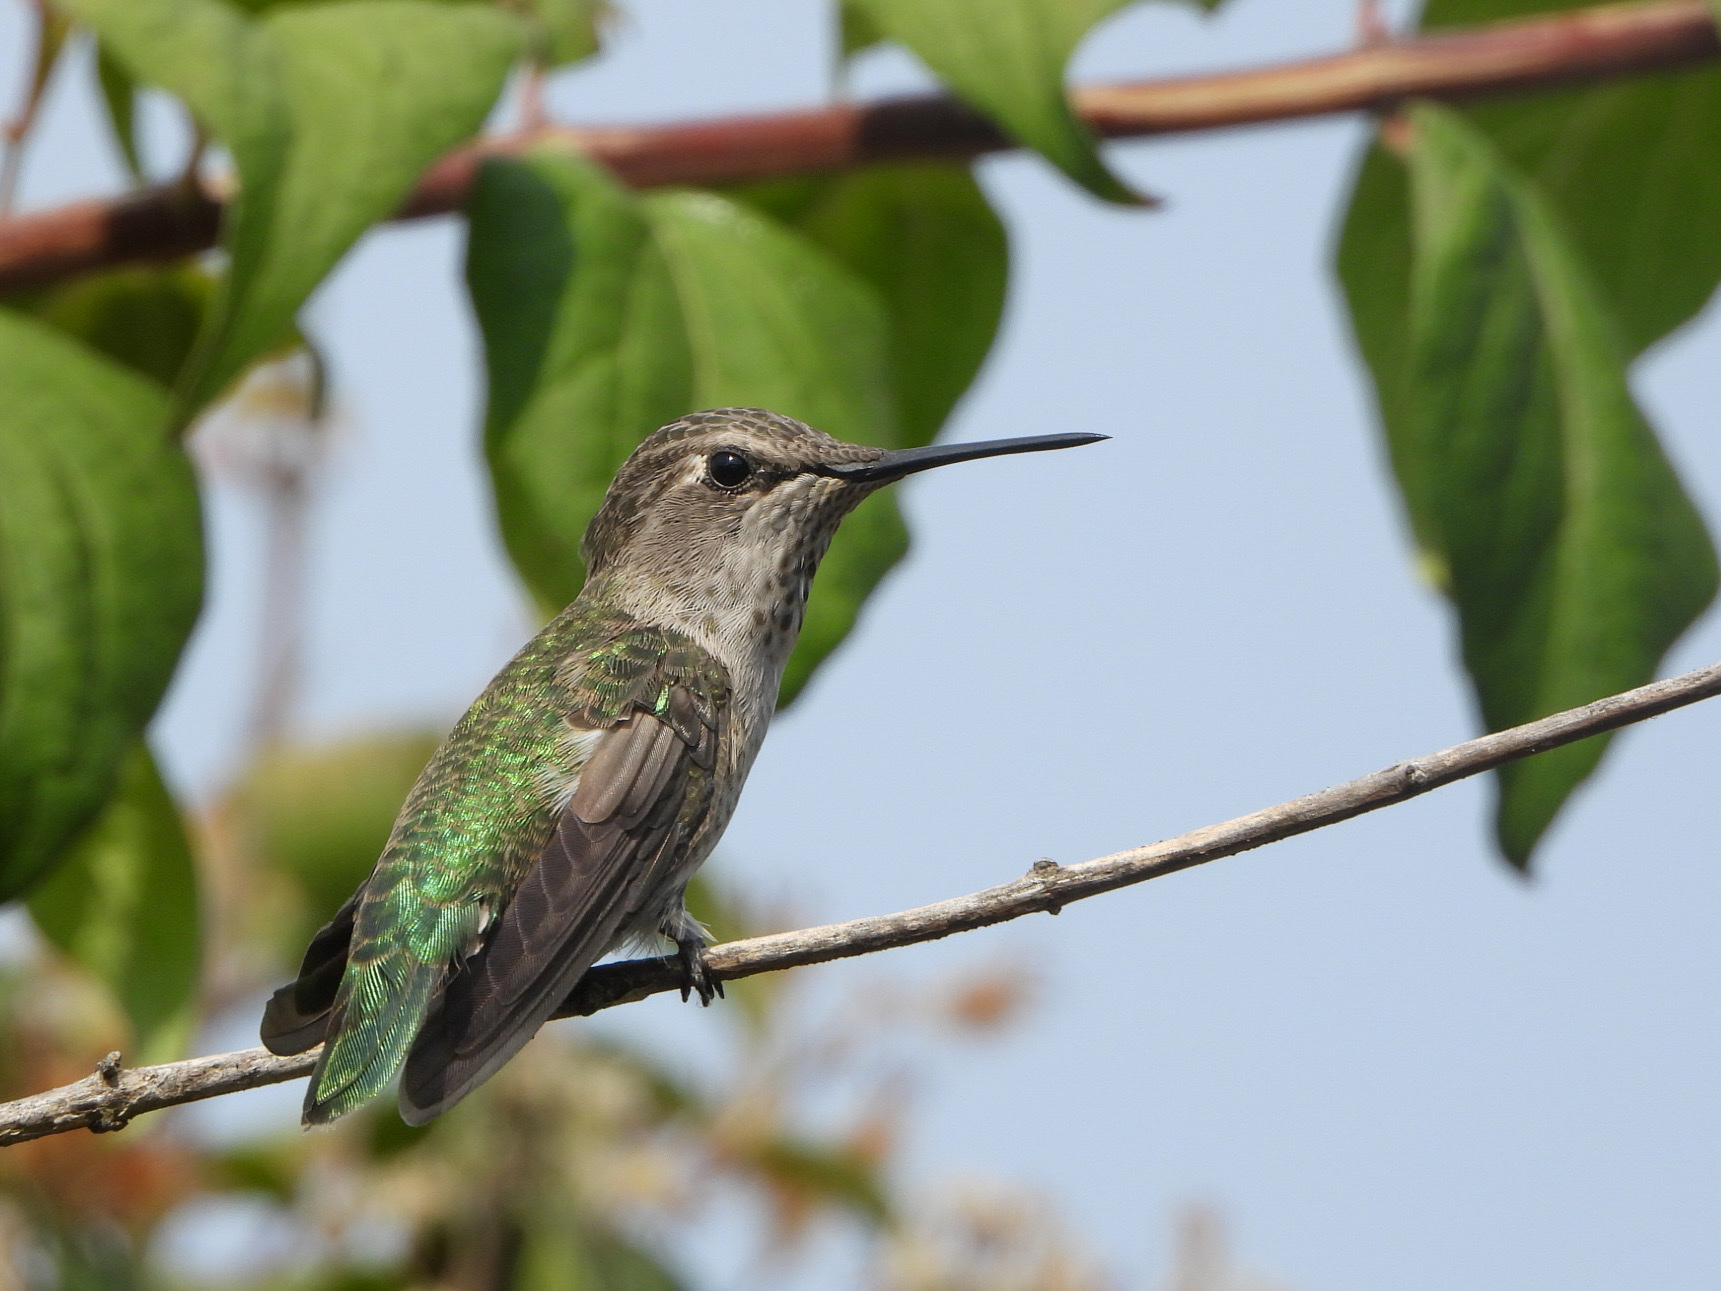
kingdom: Animalia
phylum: Chordata
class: Aves
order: Apodiformes
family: Trochilidae
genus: Calypte
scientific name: Calypte anna
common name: Anna's hummingbird
